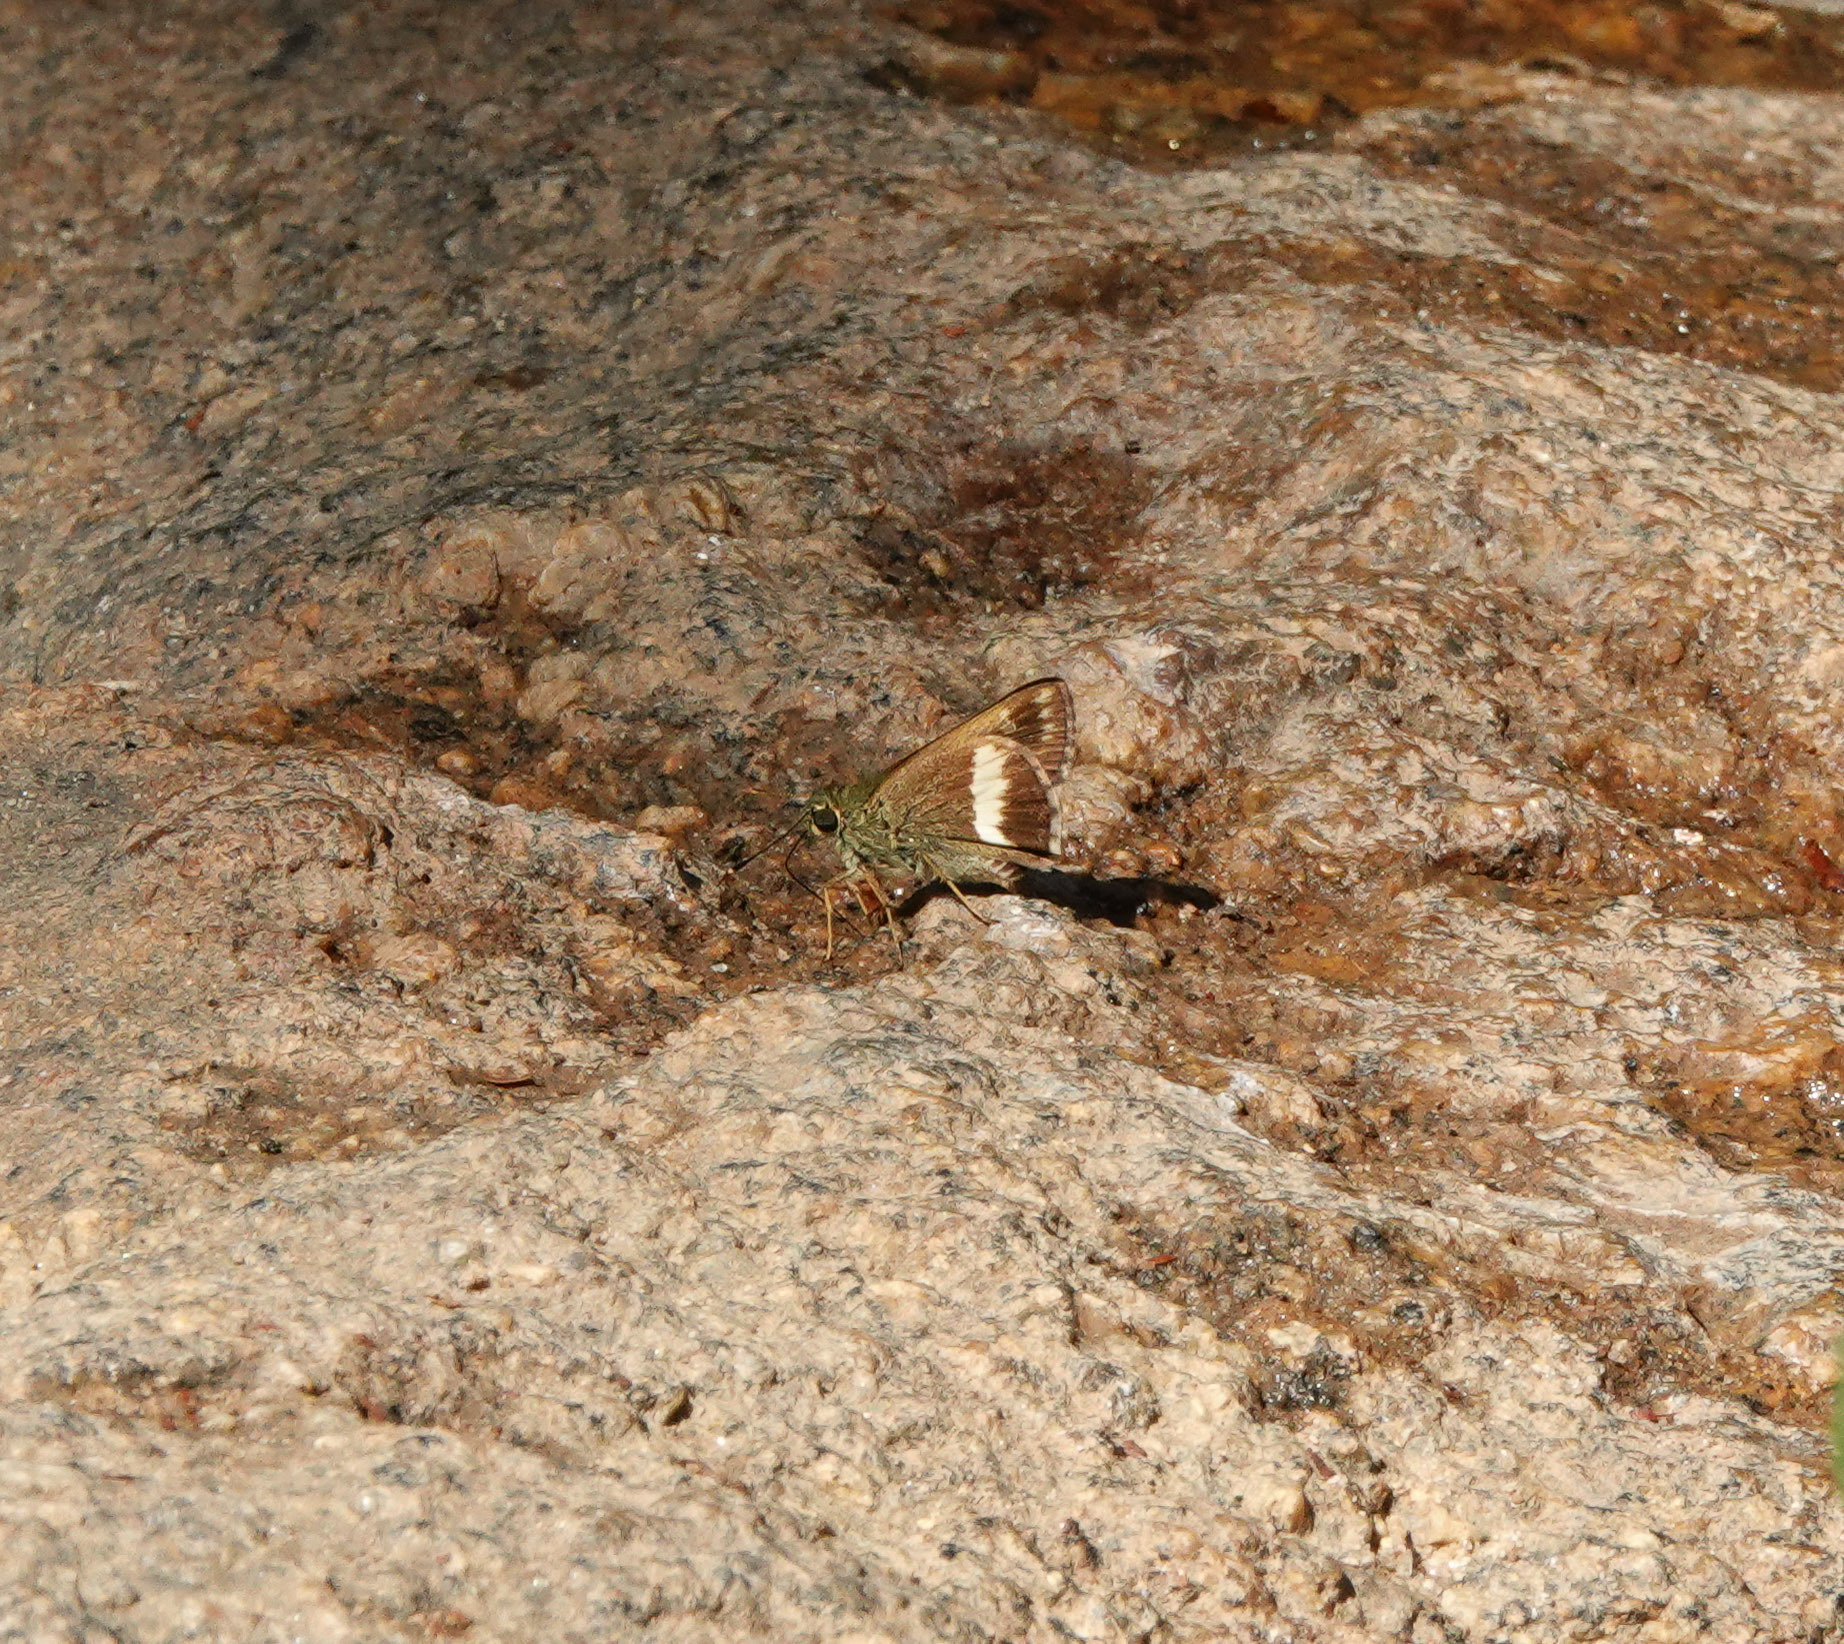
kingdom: Animalia
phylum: Arthropoda
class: Insecta
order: Lepidoptera
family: Hesperiidae
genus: Halpe
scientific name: Halpe zema
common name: Dark banded ace
